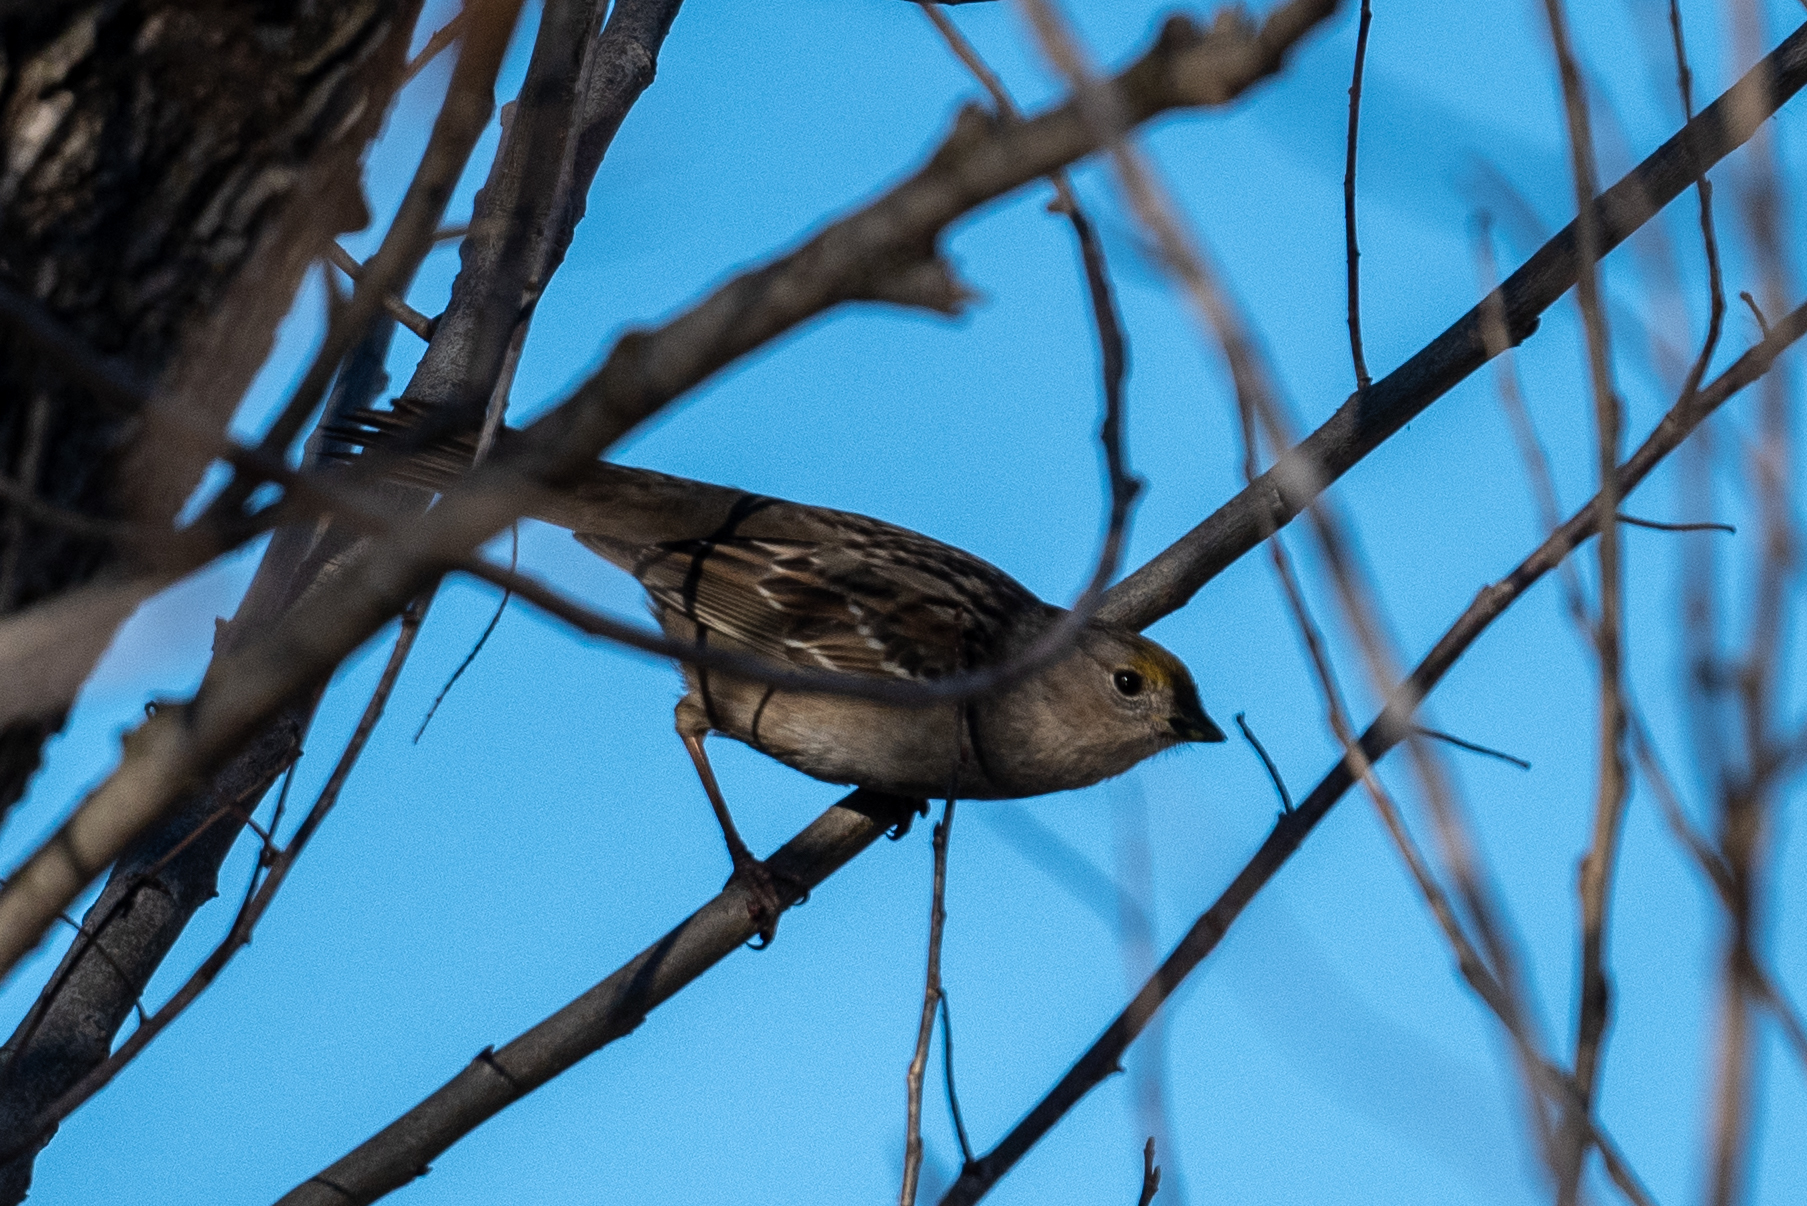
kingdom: Animalia
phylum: Chordata
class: Aves
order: Passeriformes
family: Passerellidae
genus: Zonotrichia
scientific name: Zonotrichia atricapilla
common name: Golden-crowned sparrow
